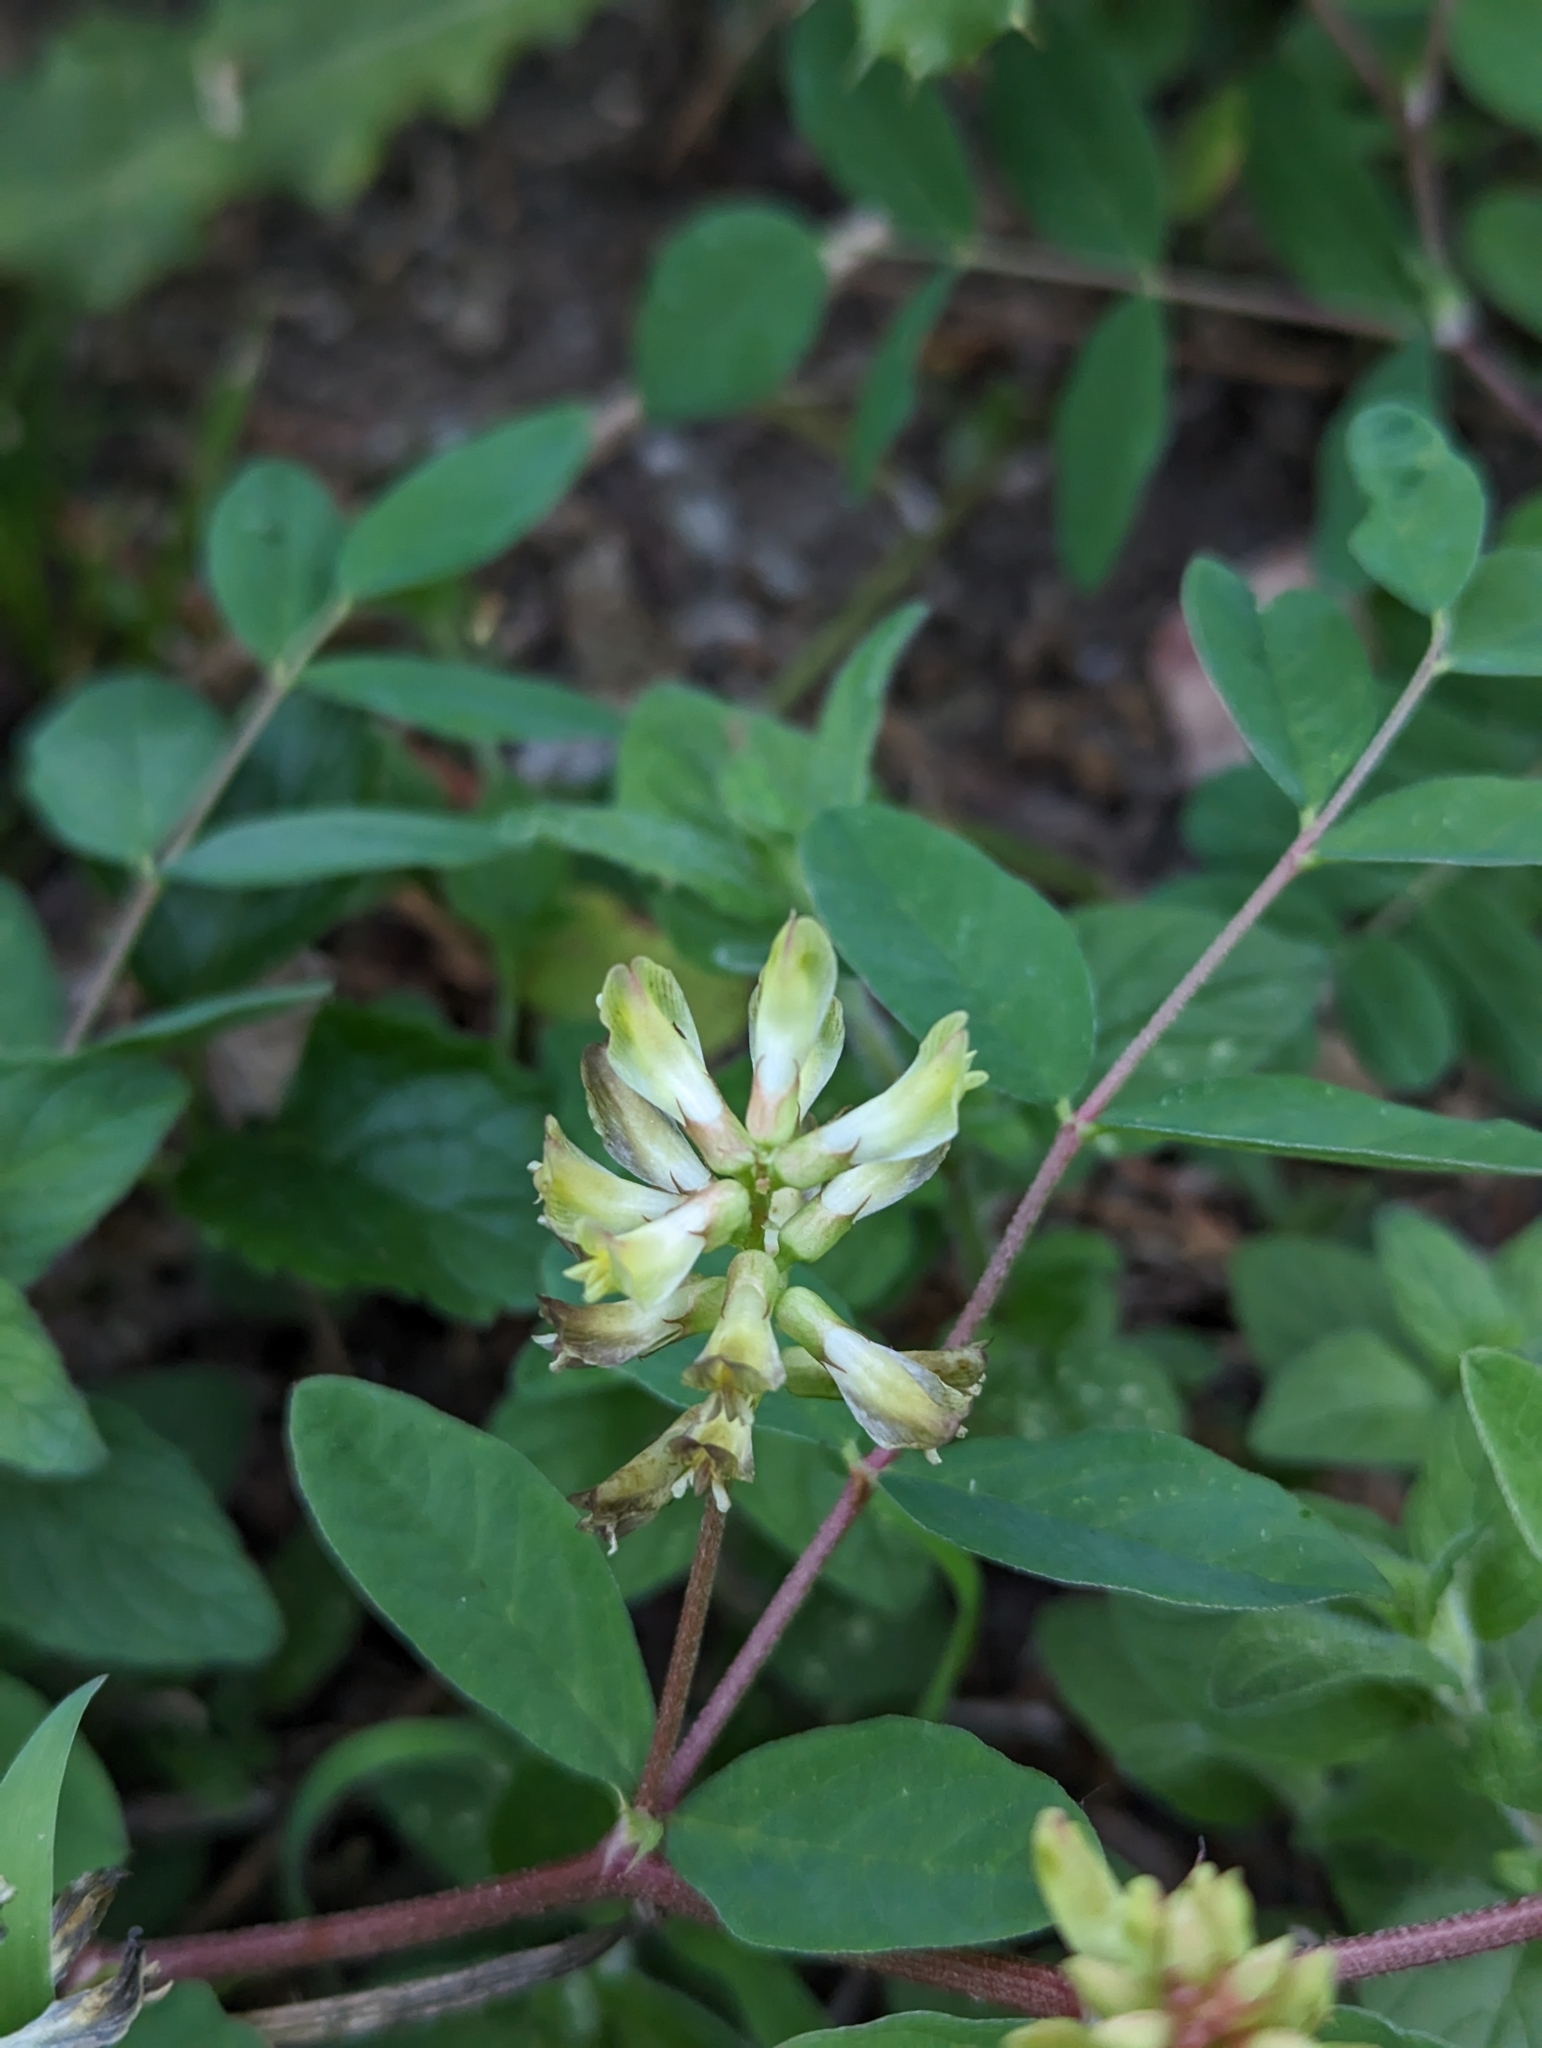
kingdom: Plantae
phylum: Tracheophyta
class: Magnoliopsida
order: Fabales
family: Fabaceae
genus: Astragalus
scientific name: Astragalus glycyphyllos
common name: Wild liquorice
